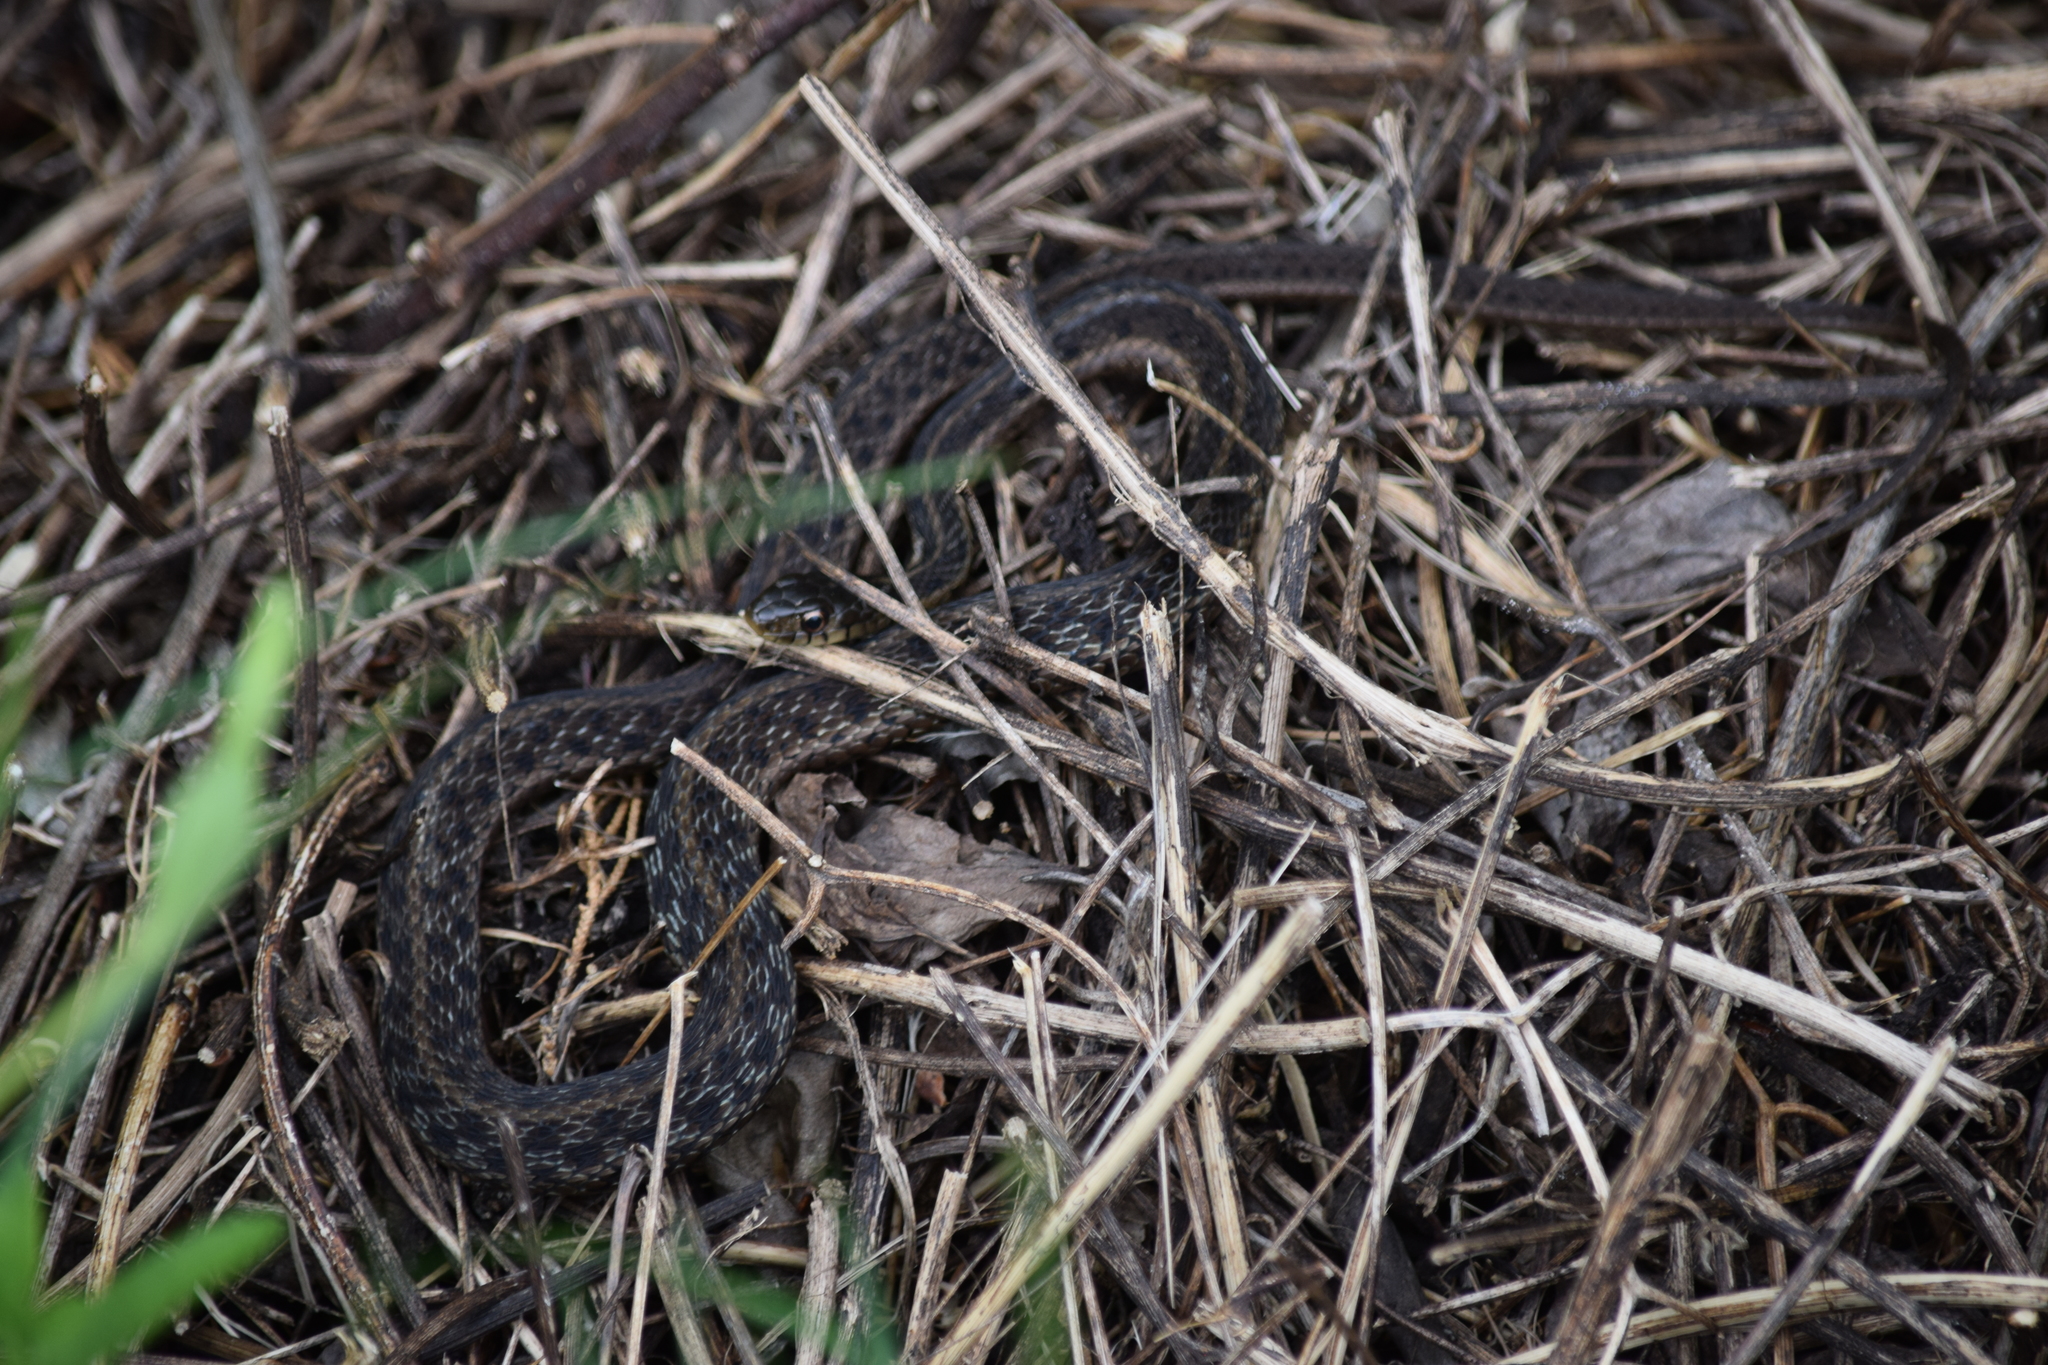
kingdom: Animalia
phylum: Chordata
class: Squamata
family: Colubridae
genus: Thamnophis
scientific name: Thamnophis sirtalis
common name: Common garter snake
